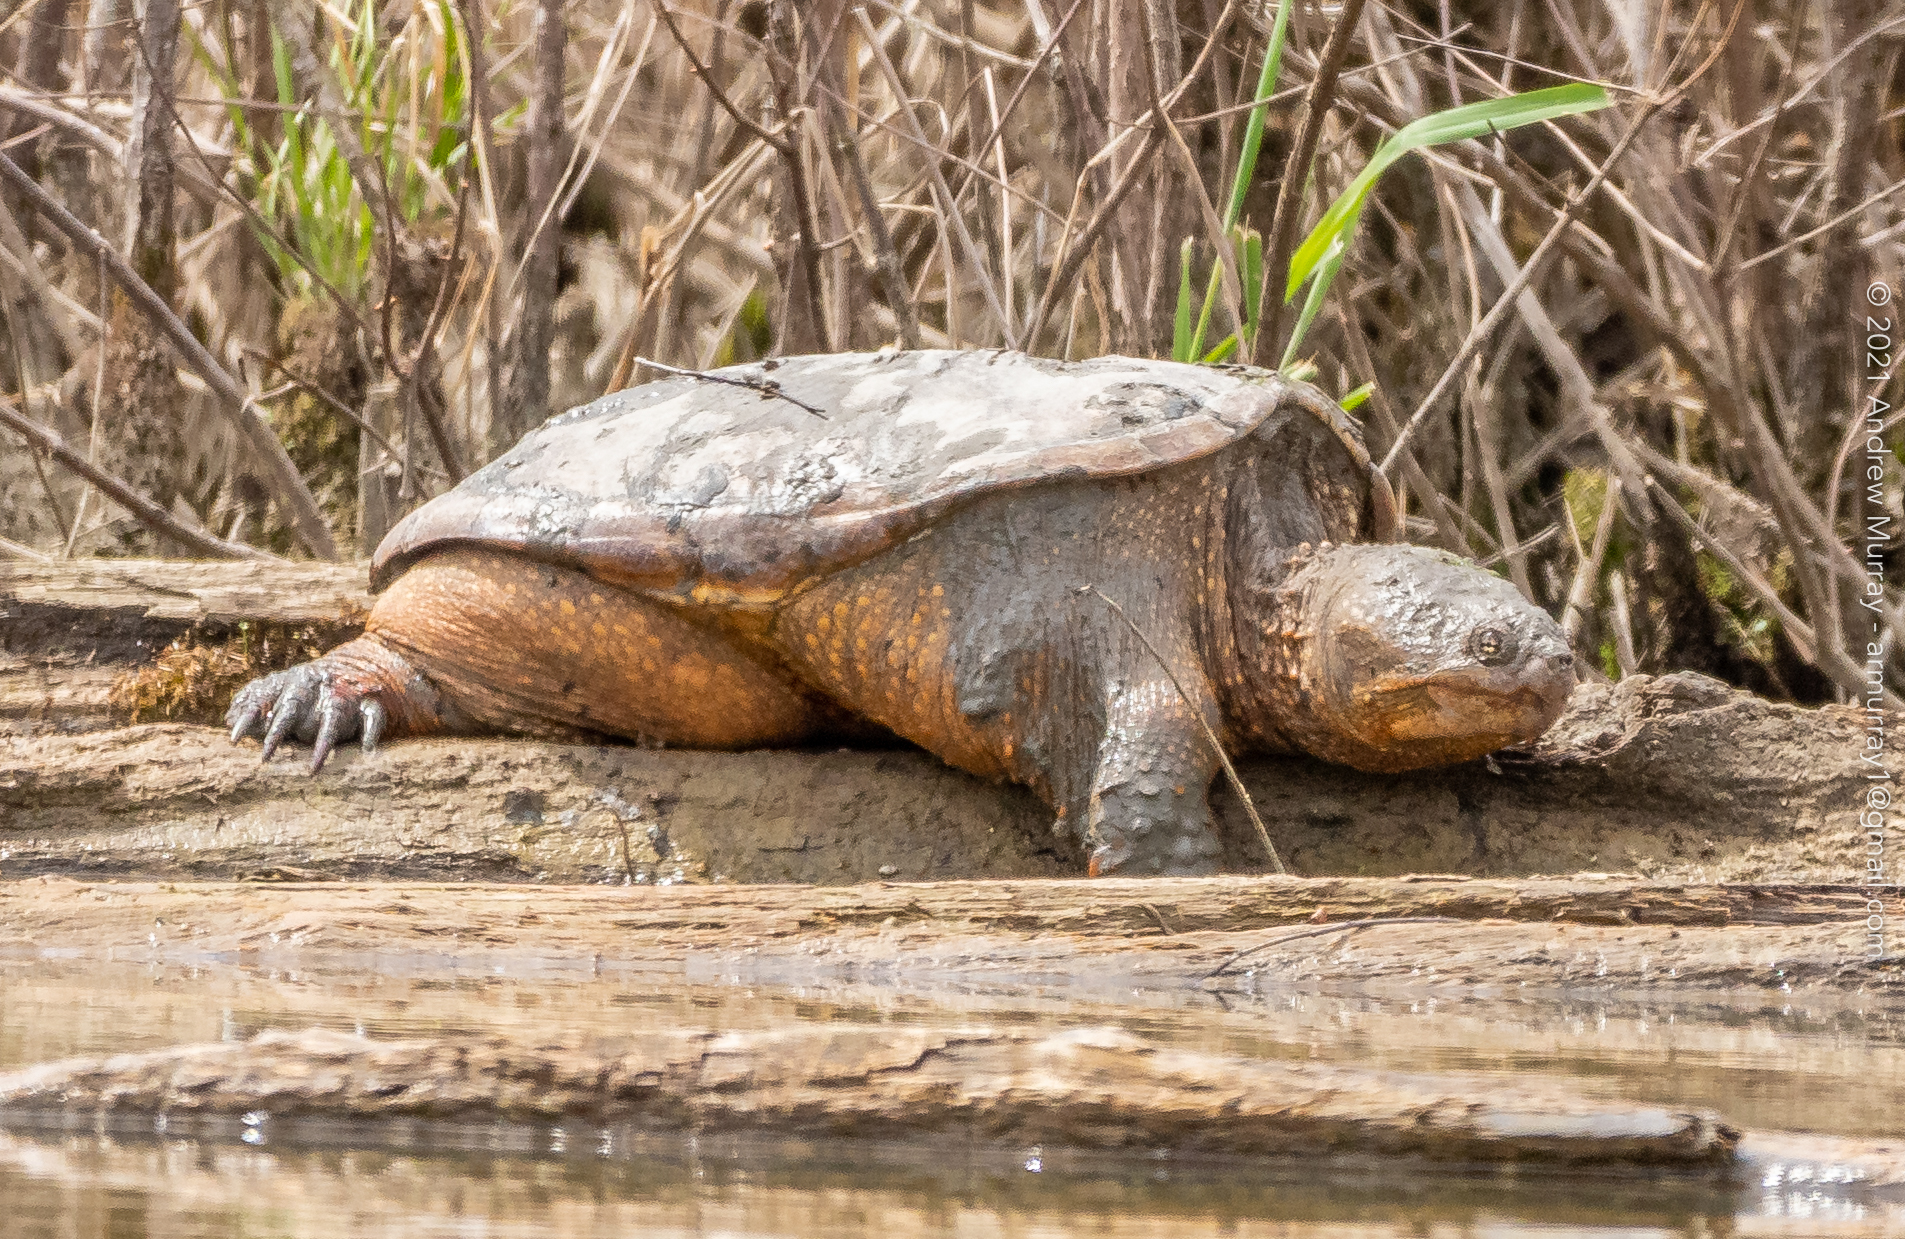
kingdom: Animalia
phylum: Chordata
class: Testudines
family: Chelydridae
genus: Chelydra
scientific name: Chelydra serpentina
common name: Common snapping turtle
